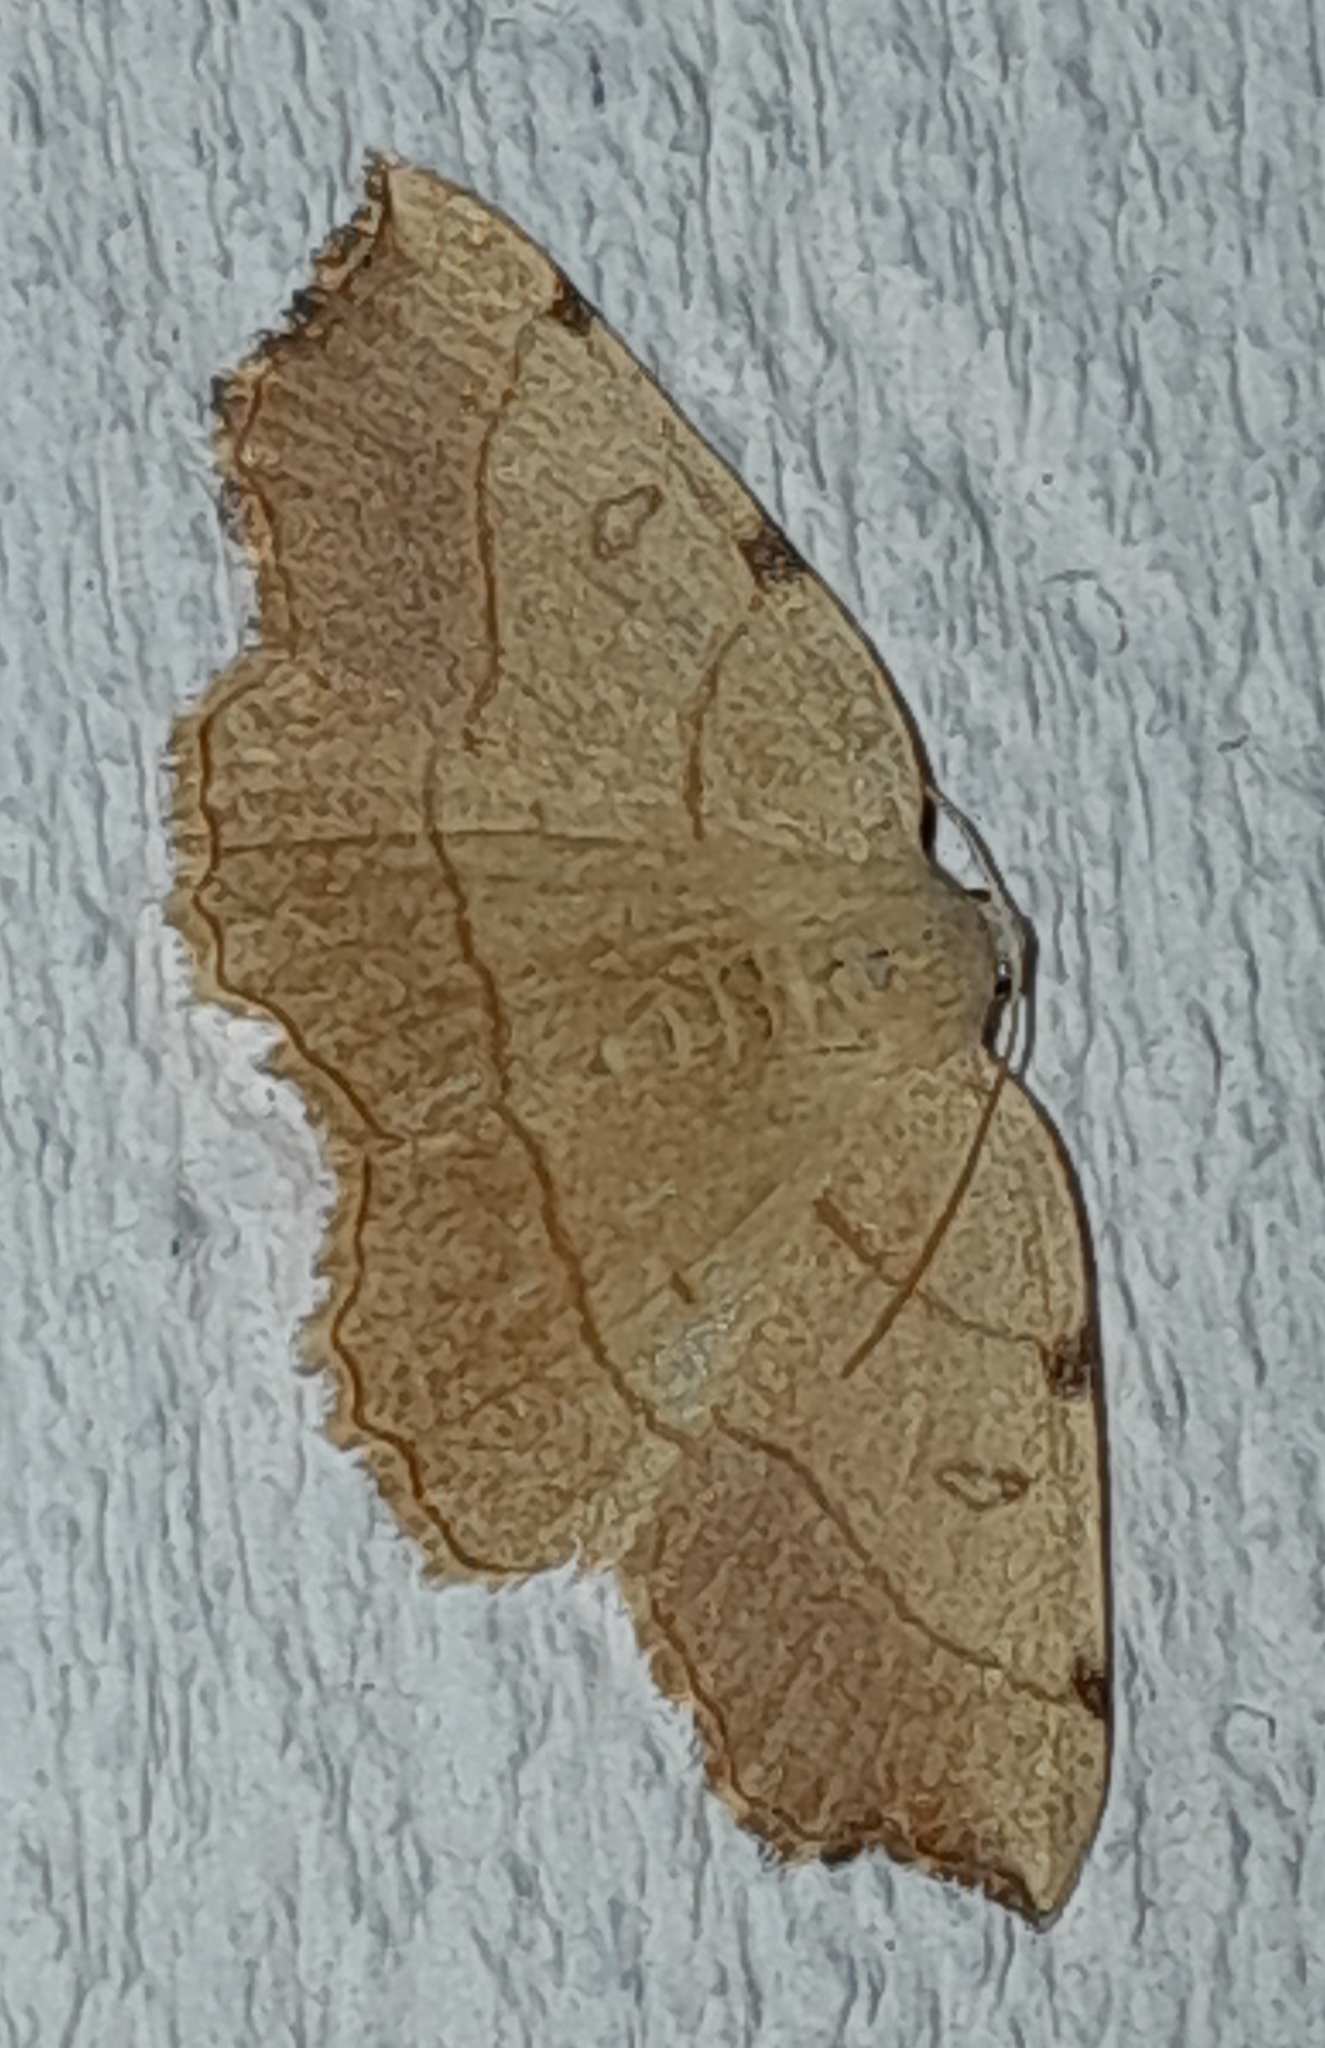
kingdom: Animalia
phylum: Arthropoda
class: Insecta
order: Lepidoptera
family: Geometridae
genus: Eilicrinia
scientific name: Eilicrinia trinotata
